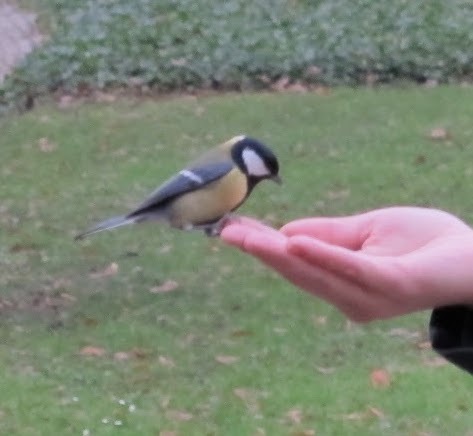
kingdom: Animalia
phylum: Chordata
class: Aves
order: Passeriformes
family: Paridae
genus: Parus
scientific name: Parus major
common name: Great tit
